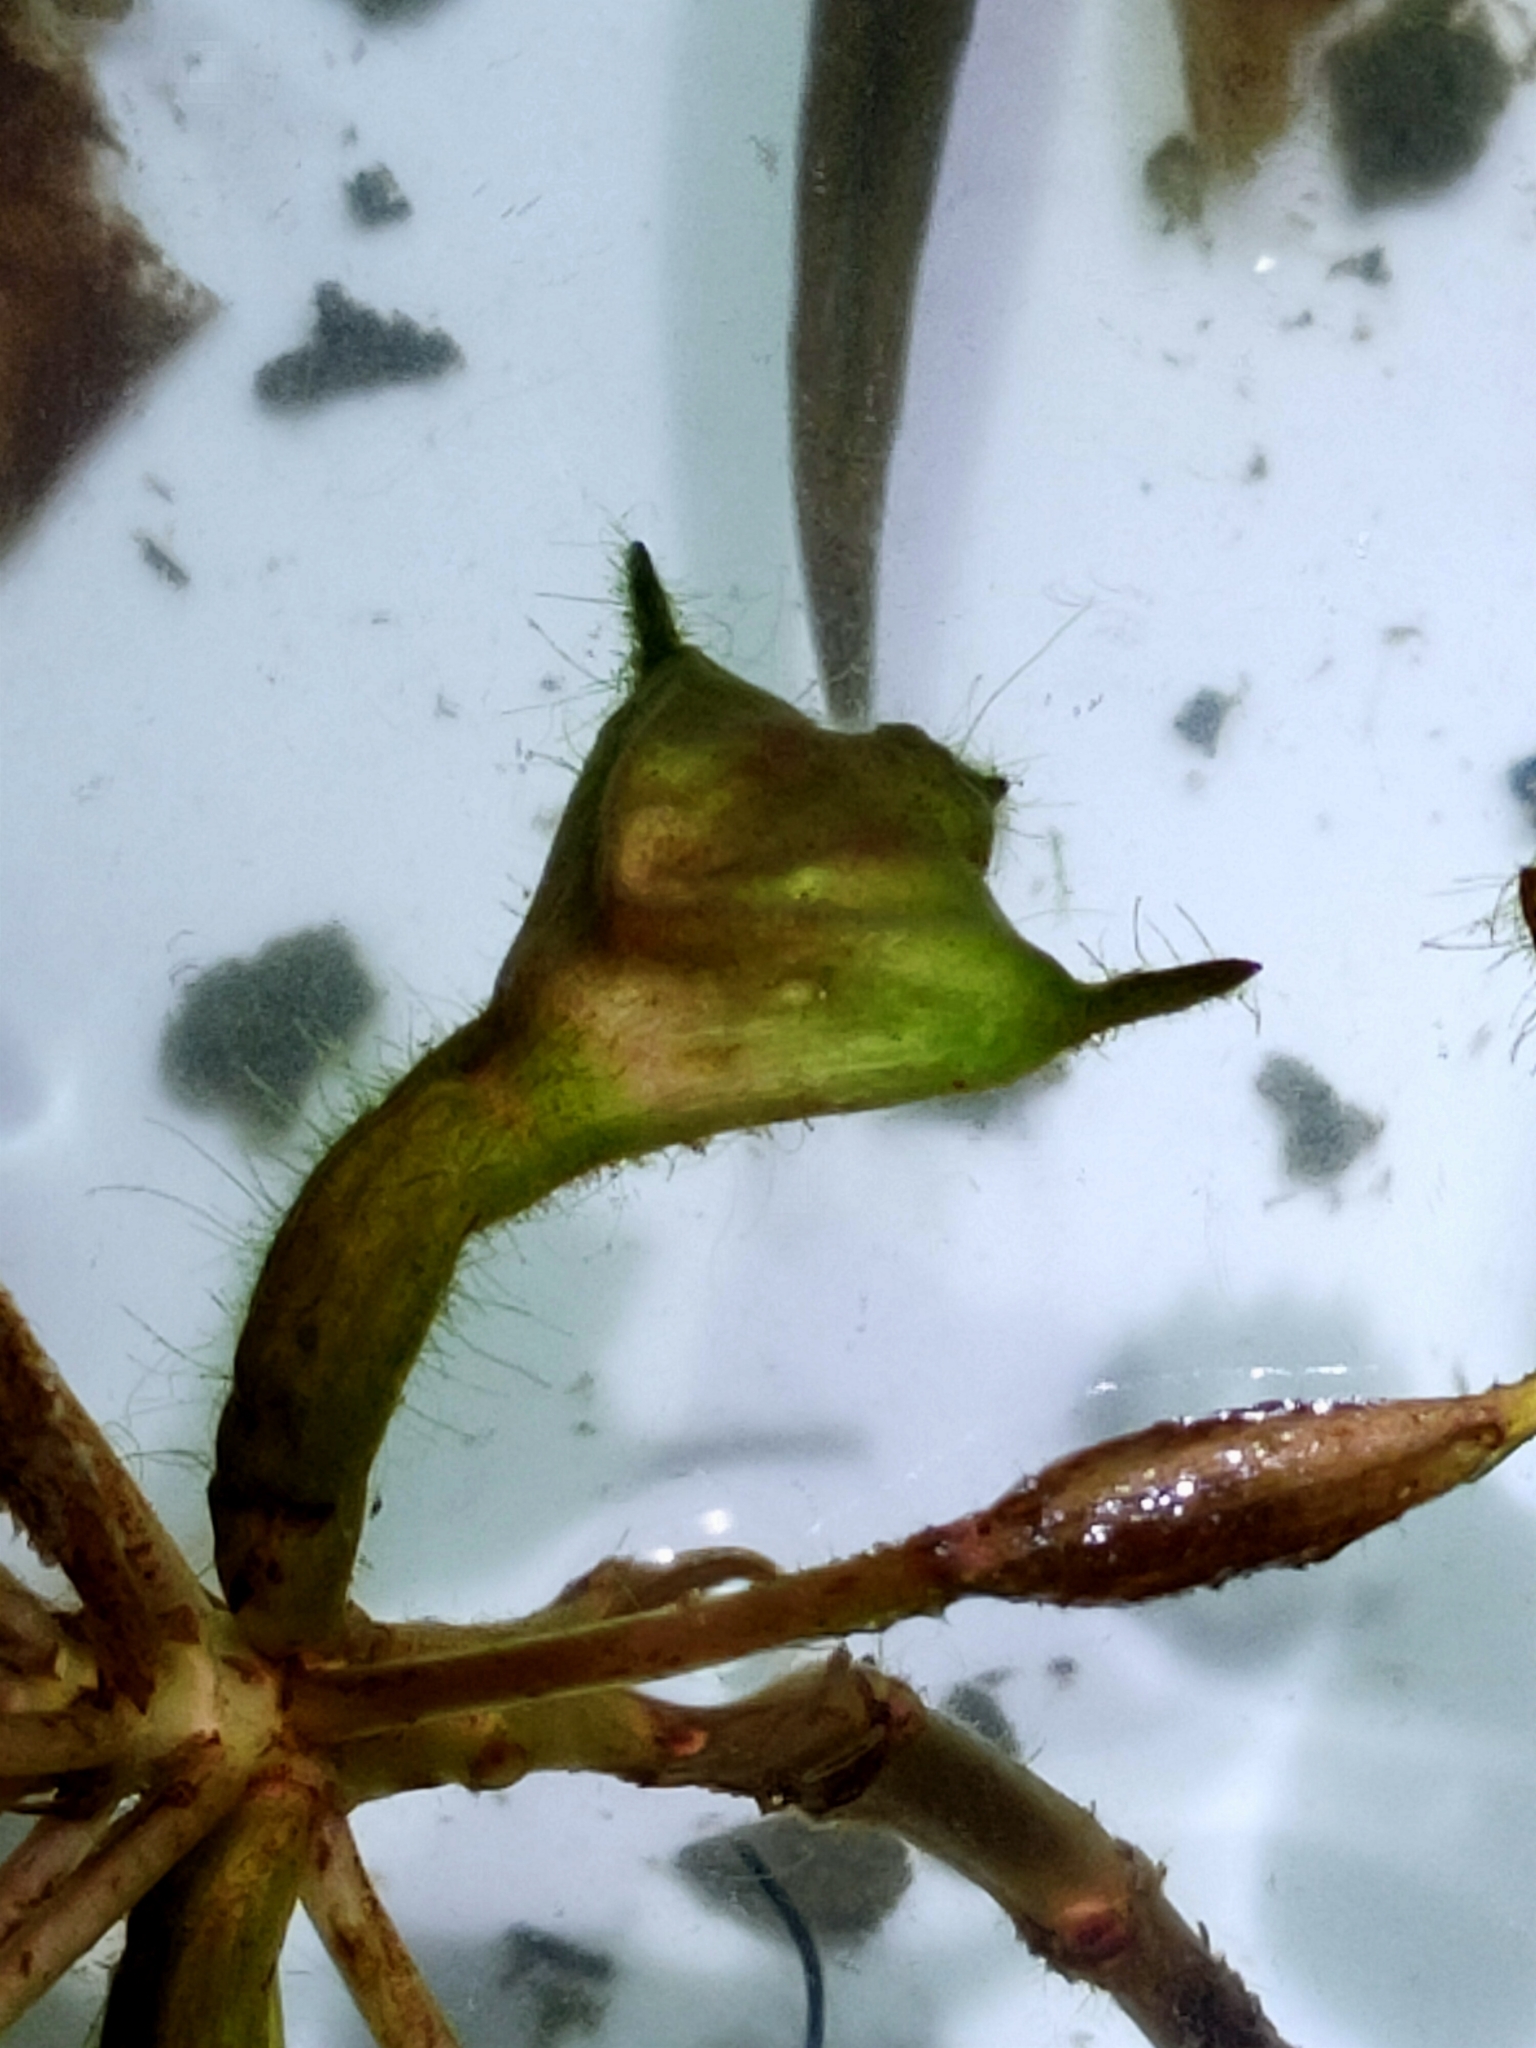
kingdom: Plantae
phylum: Tracheophyta
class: Magnoliopsida
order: Myrtales
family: Lythraceae
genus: Trapa
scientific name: Trapa natans
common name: Water chestnut
